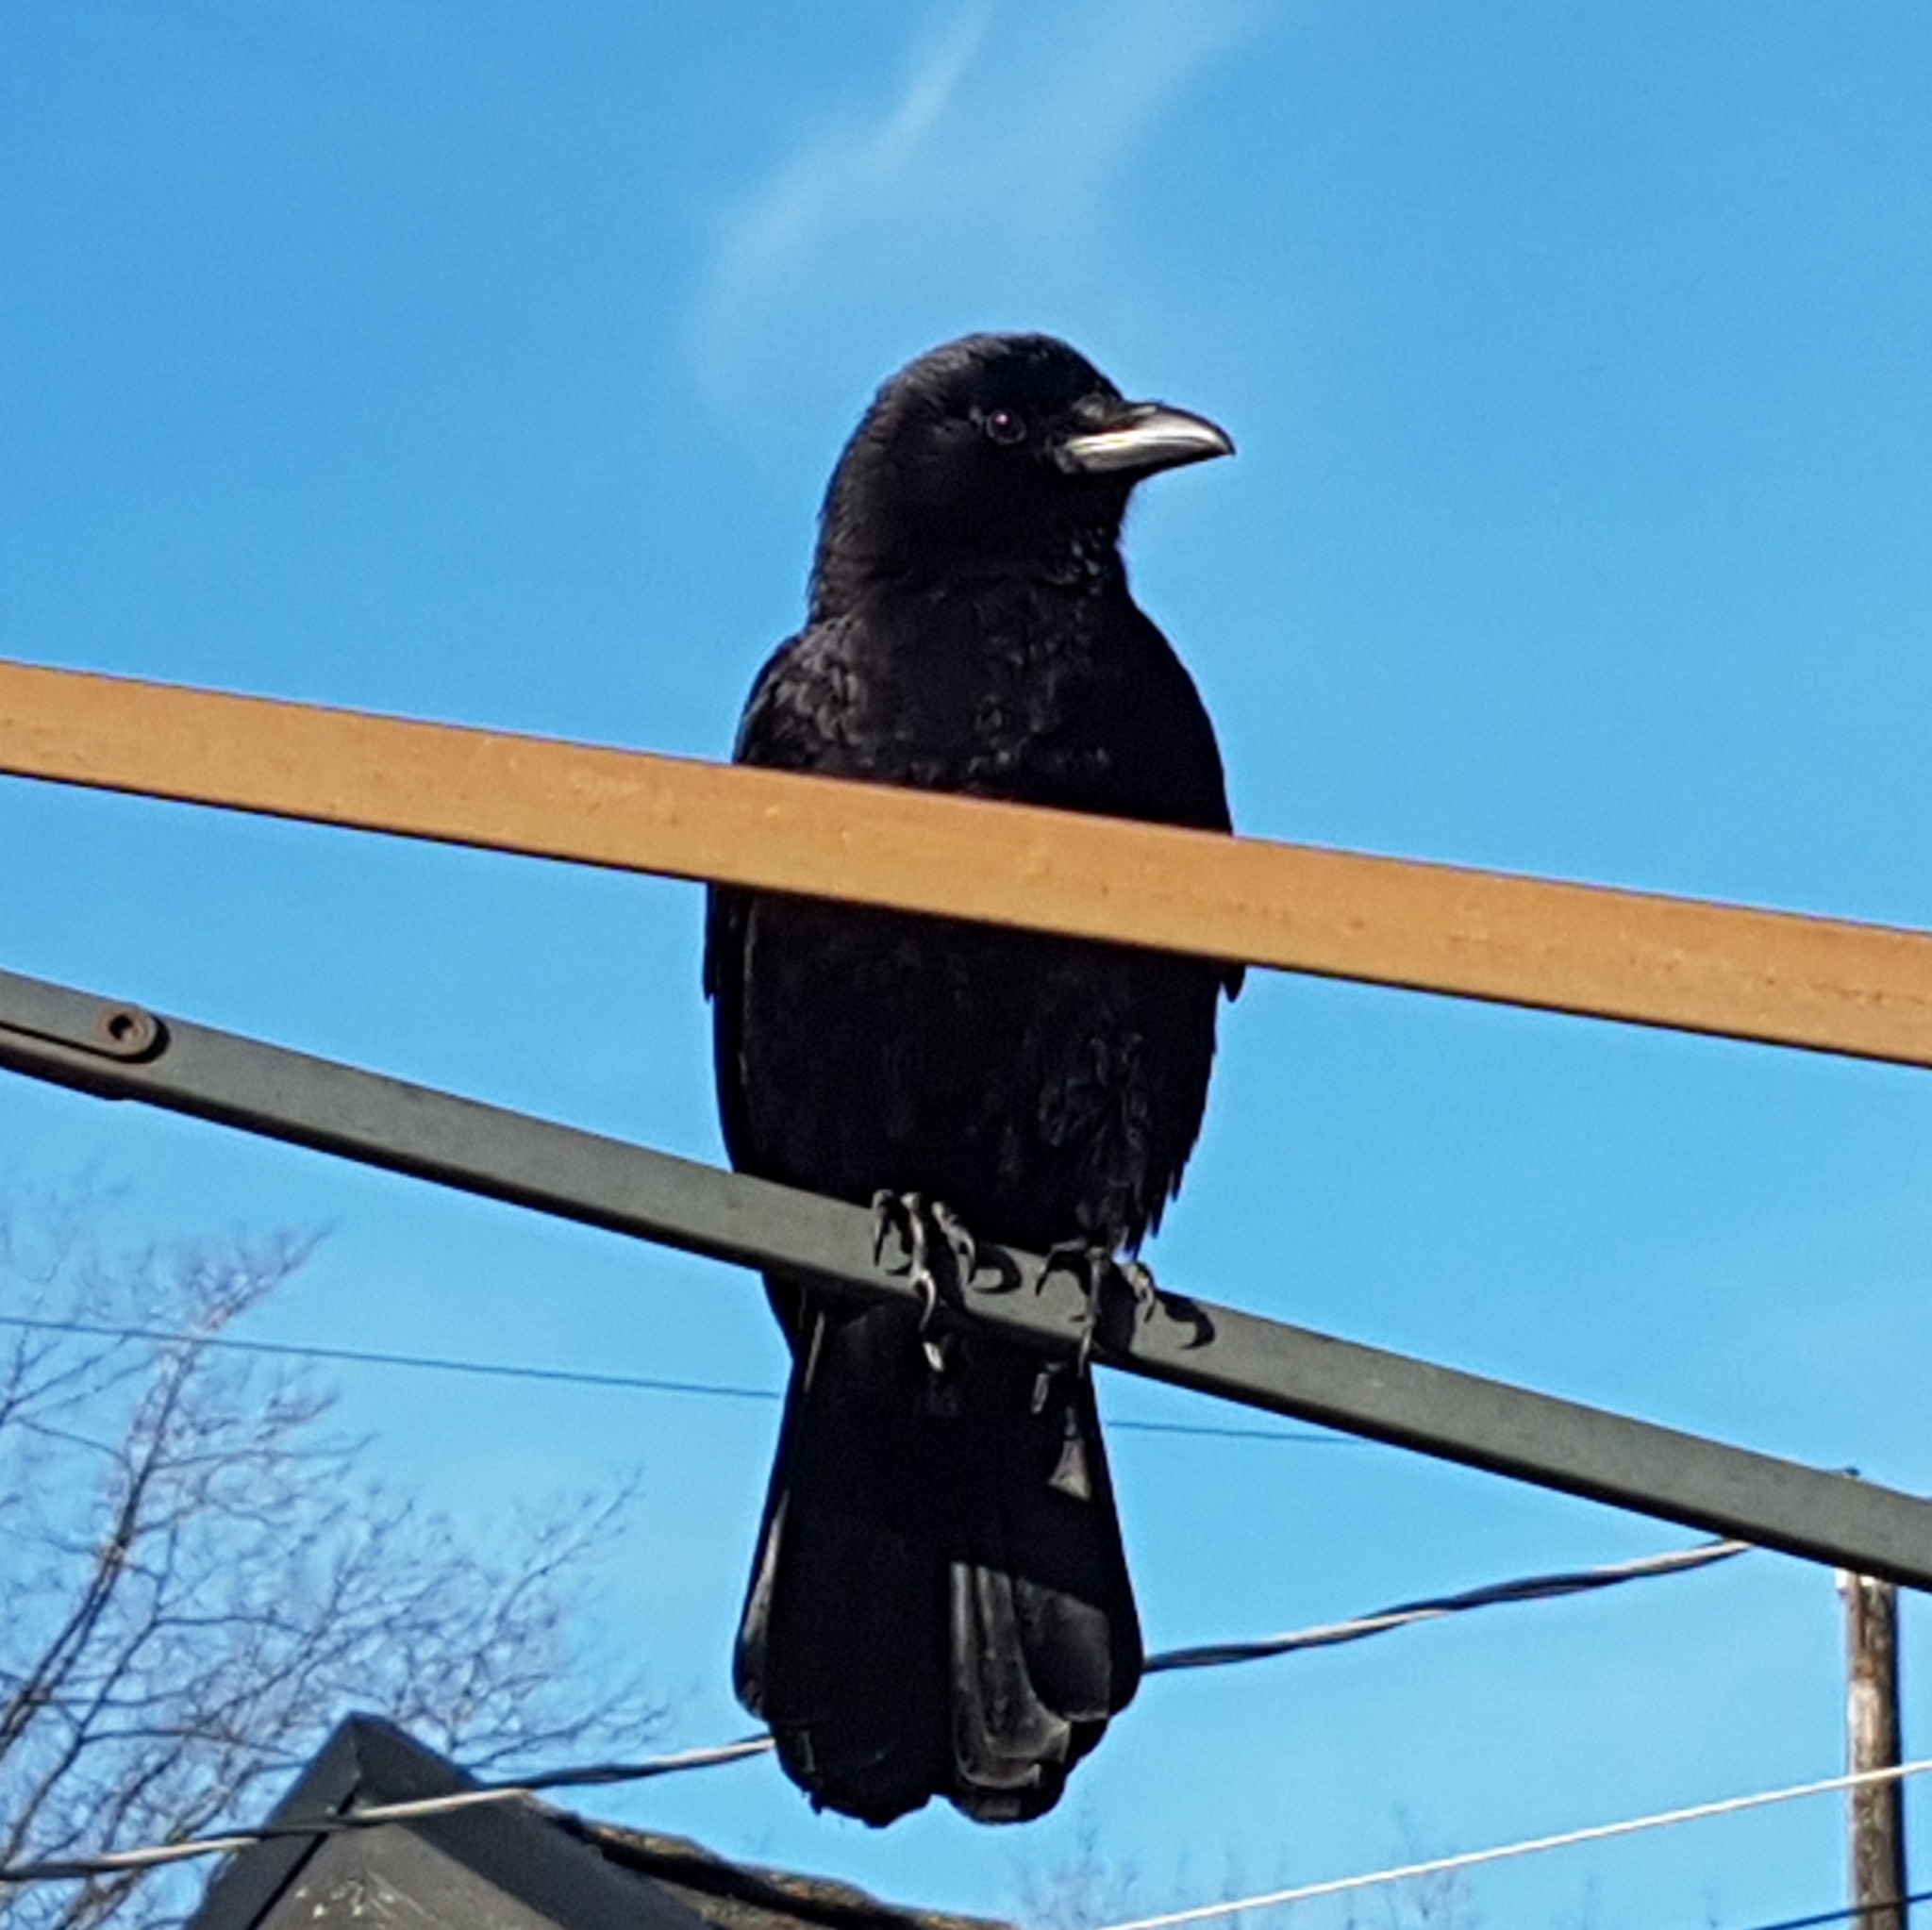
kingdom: Animalia
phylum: Chordata
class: Aves
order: Passeriformes
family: Corvidae
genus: Corvus
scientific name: Corvus brachyrhynchos
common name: American crow
